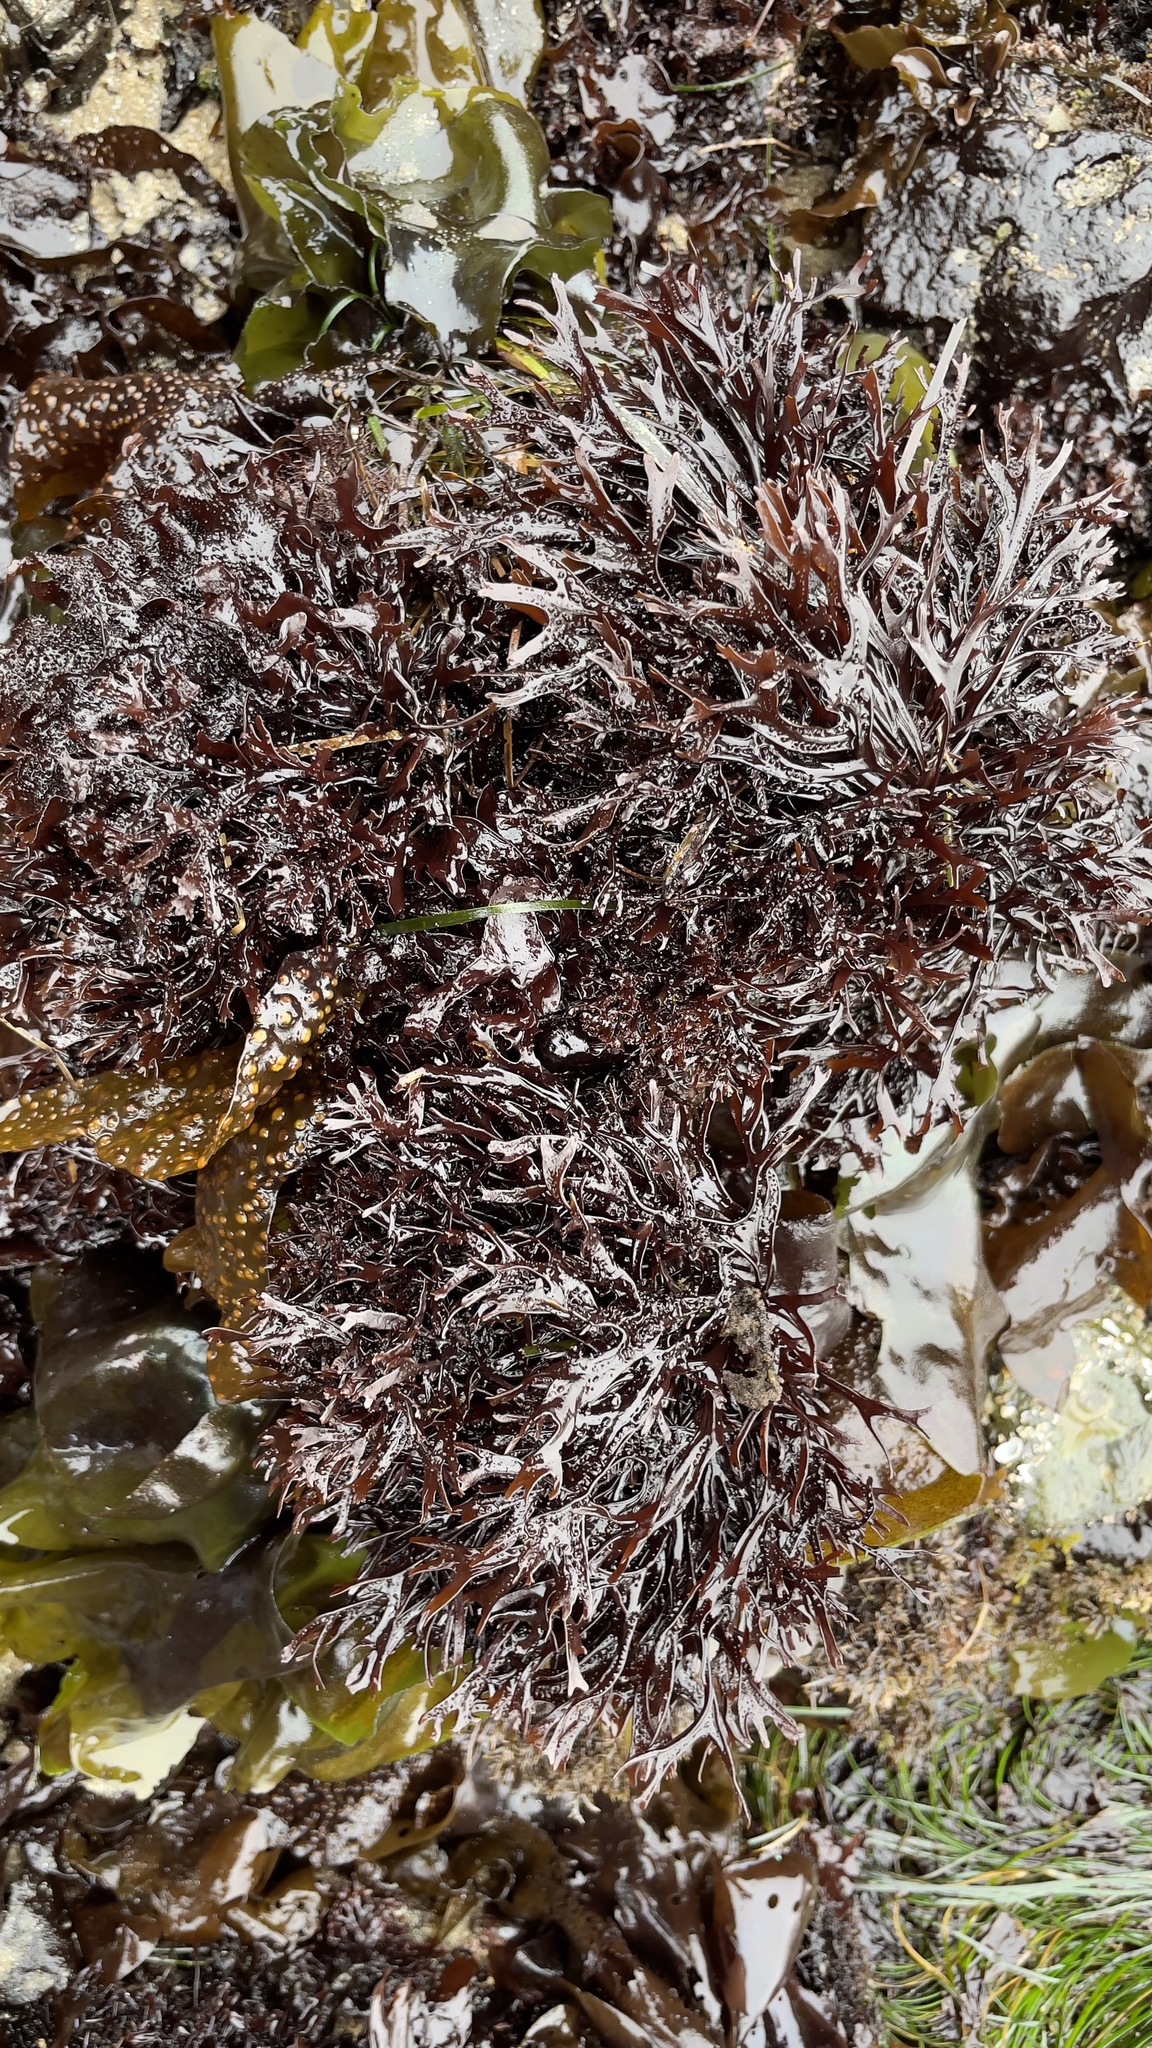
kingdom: Plantae
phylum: Rhodophyta
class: Florideophyceae
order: Gigartinales
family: Phyllophoraceae
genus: Mastocarpus
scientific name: Mastocarpus jardinii
